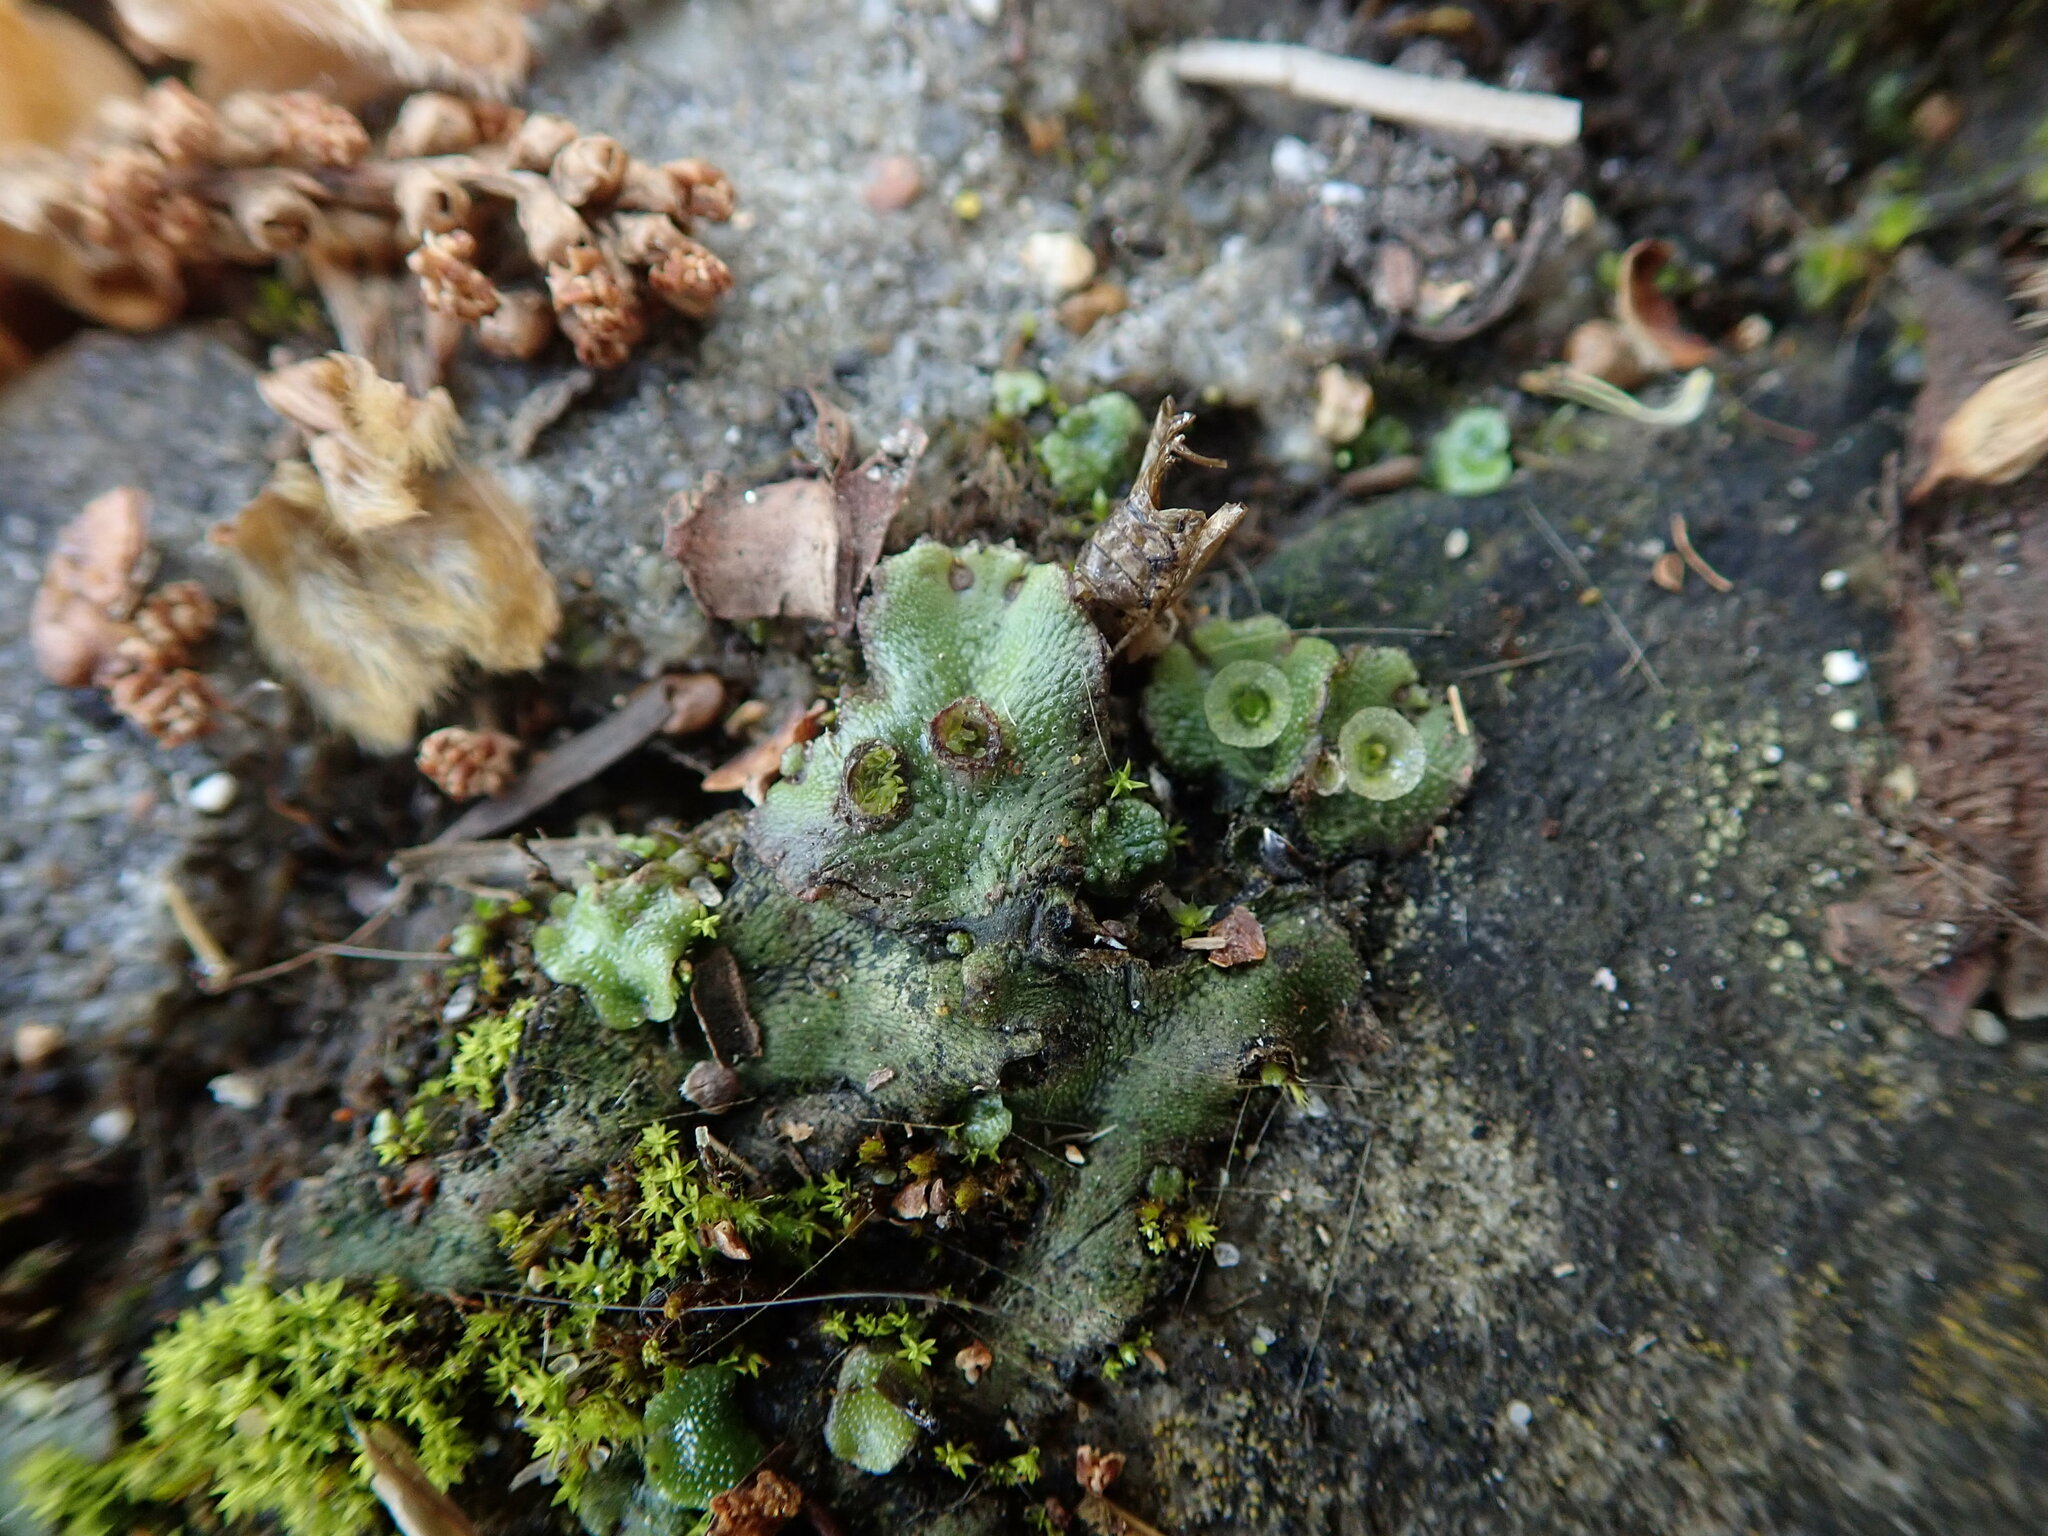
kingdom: Plantae
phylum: Marchantiophyta
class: Marchantiopsida
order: Marchantiales
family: Marchantiaceae
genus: Marchantia
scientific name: Marchantia polymorpha
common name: Common liverwort
